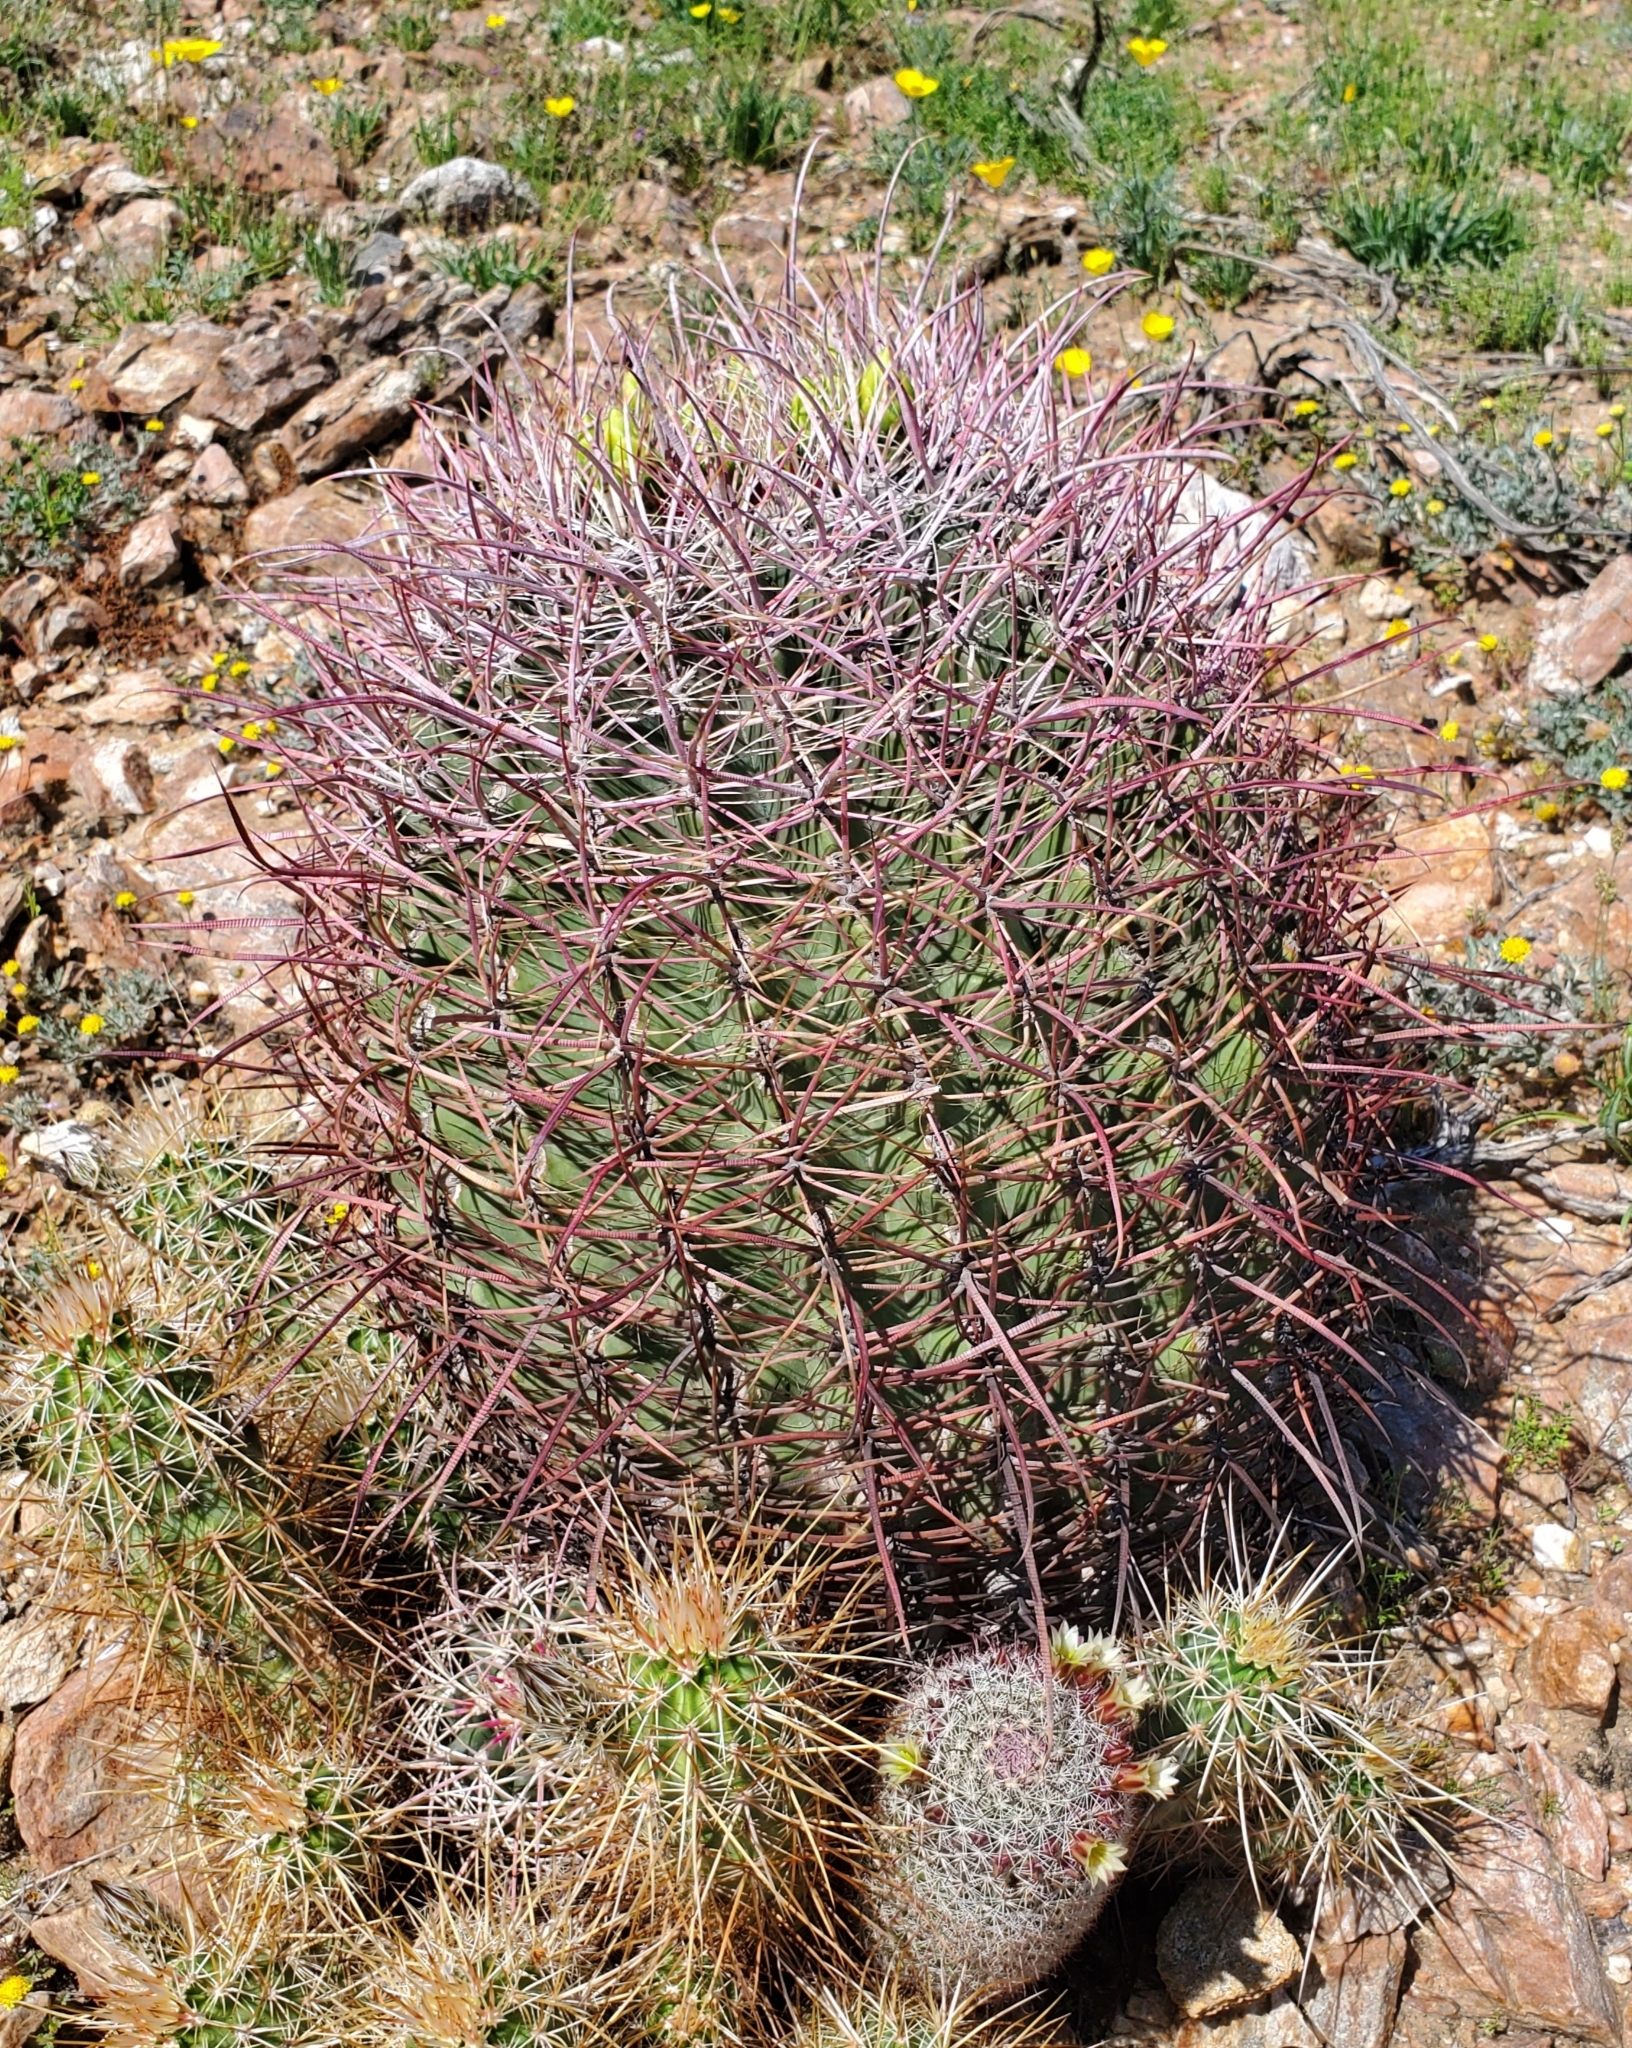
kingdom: Plantae
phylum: Tracheophyta
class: Magnoliopsida
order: Caryophyllales
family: Cactaceae
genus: Ferocactus
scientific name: Ferocactus cylindraceus
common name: California barrel cactus
